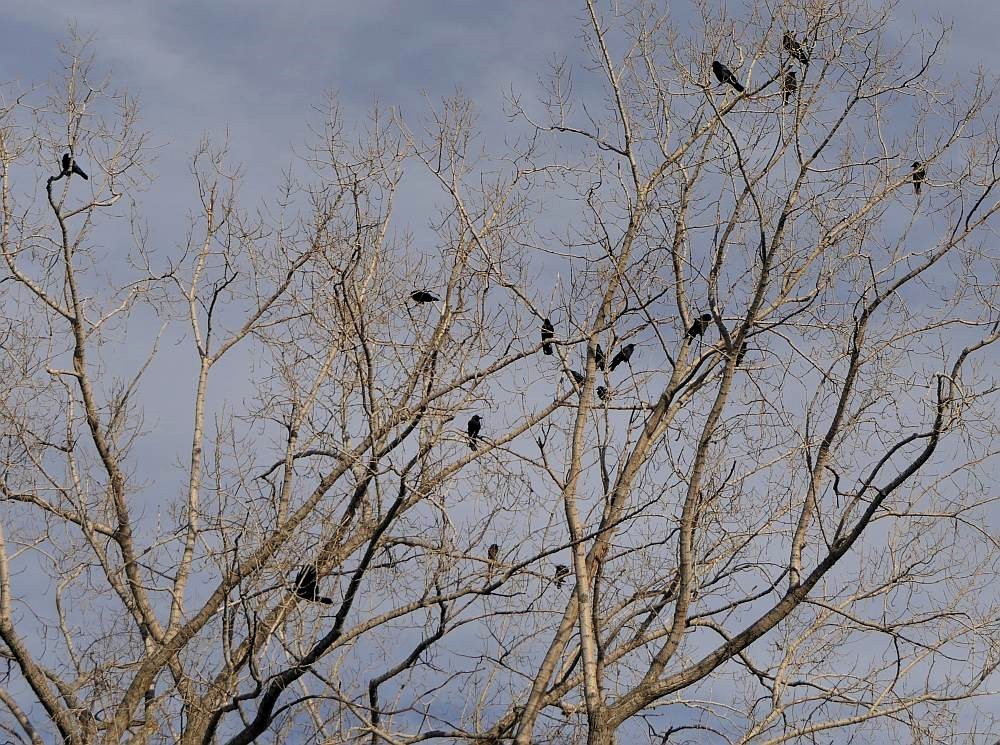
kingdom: Animalia
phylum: Chordata
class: Aves
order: Passeriformes
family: Corvidae
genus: Corvus
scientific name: Corvus brachyrhynchos
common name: American crow
